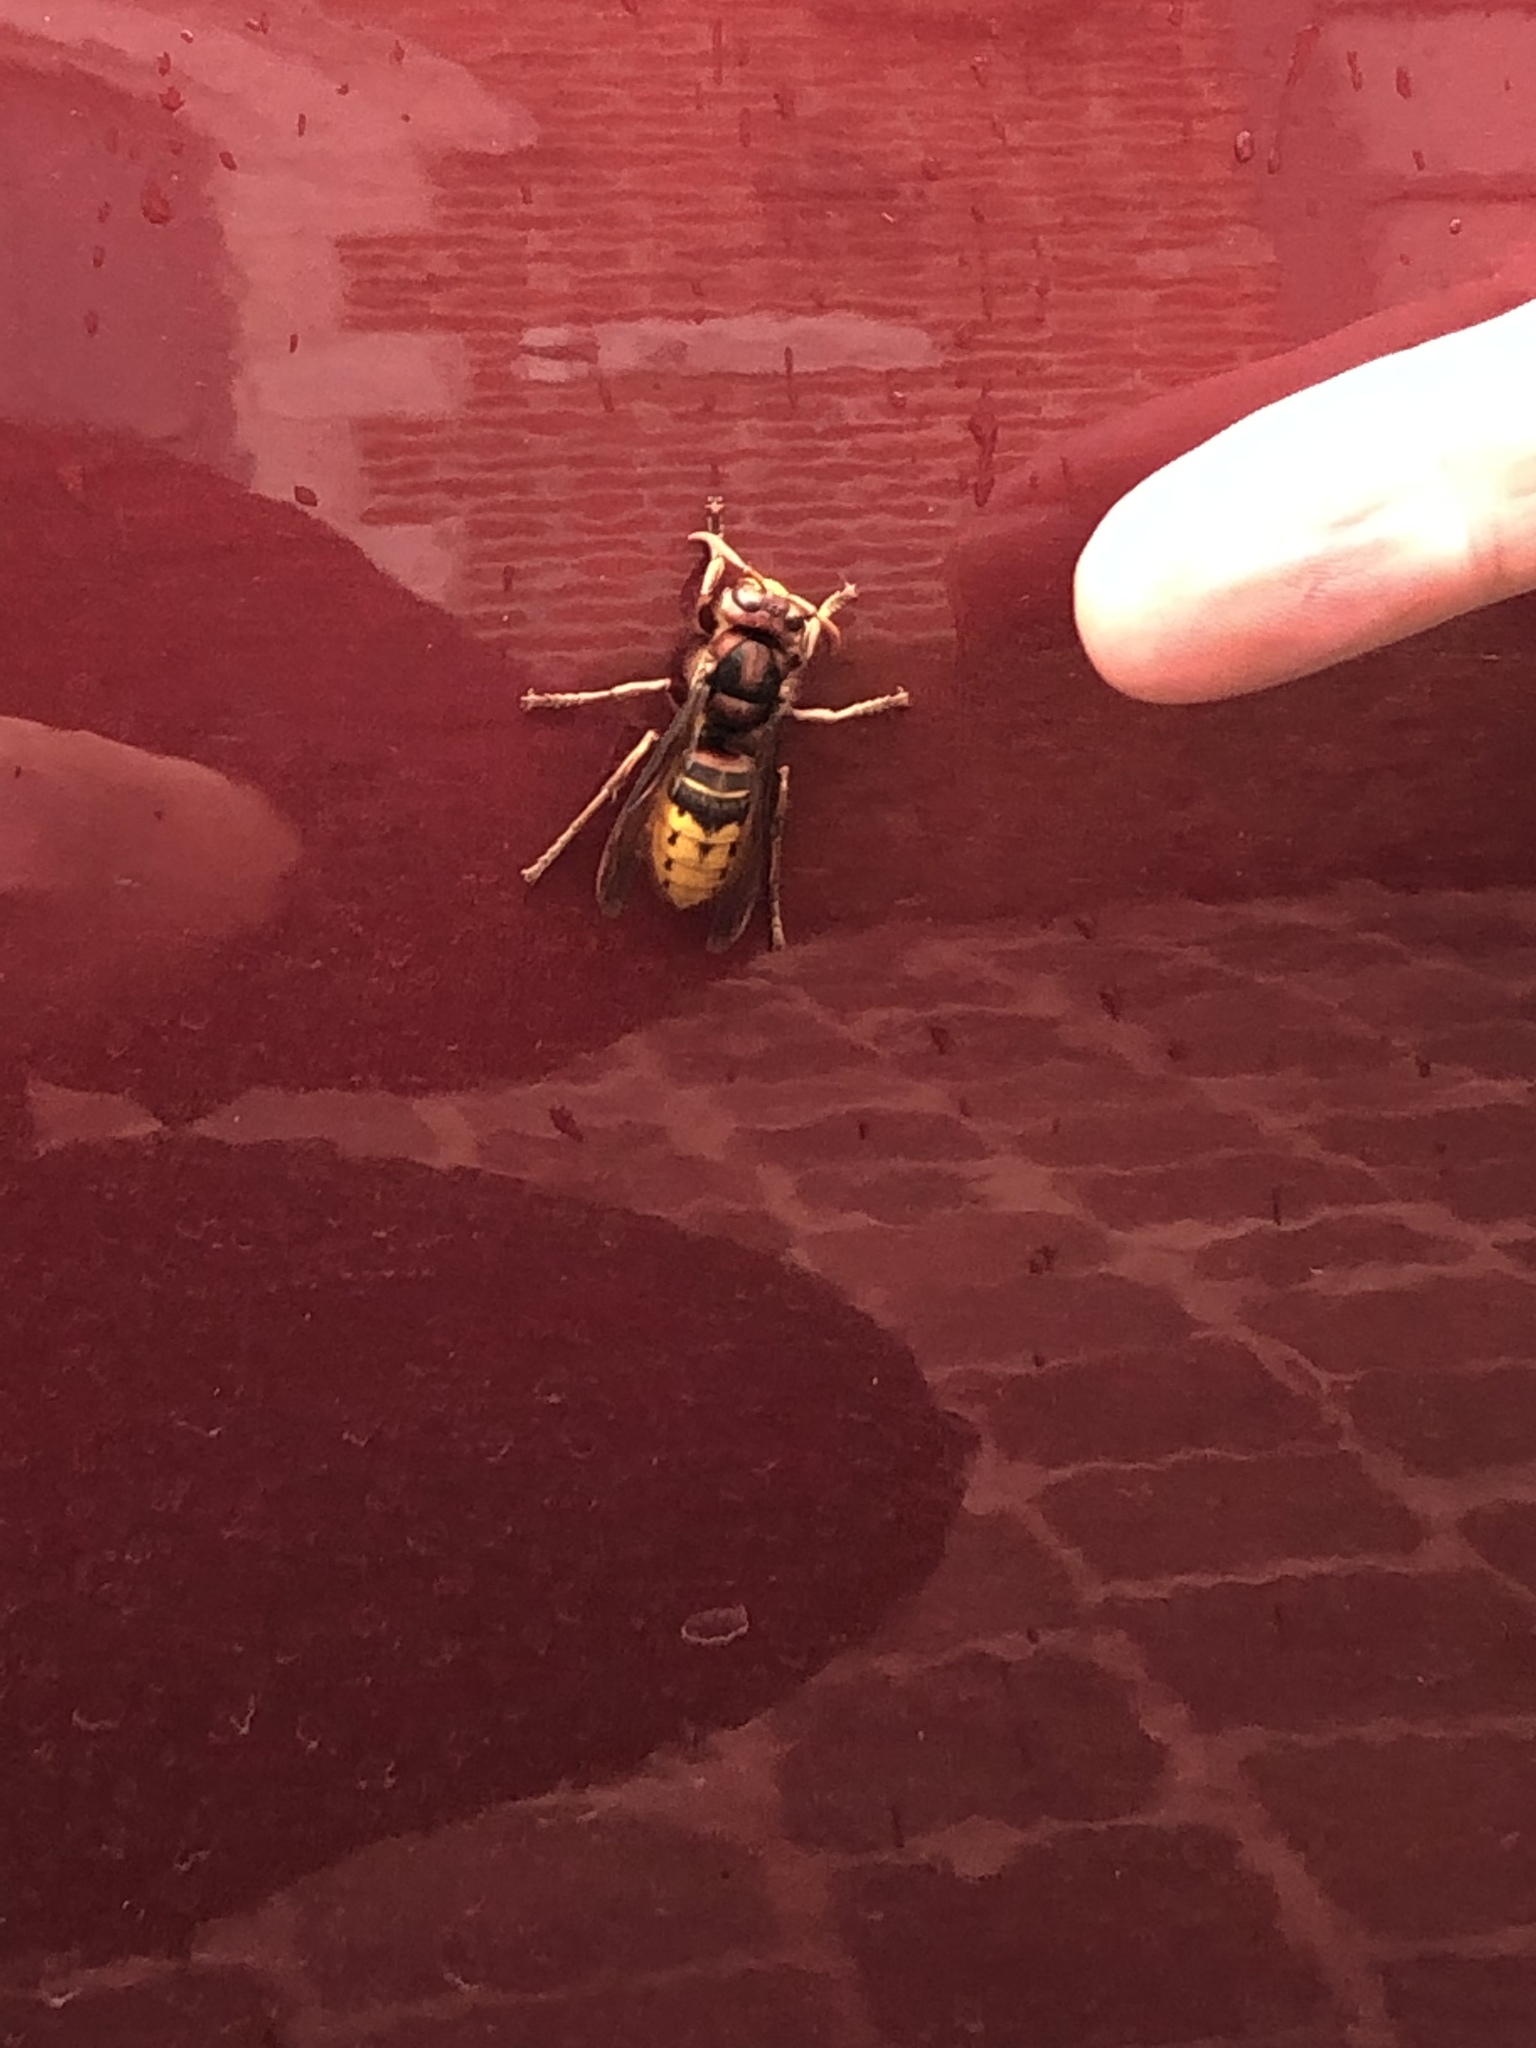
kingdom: Animalia
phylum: Arthropoda
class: Insecta
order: Hymenoptera
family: Vespidae
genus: Vespa
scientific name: Vespa crabro
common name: Hornet
